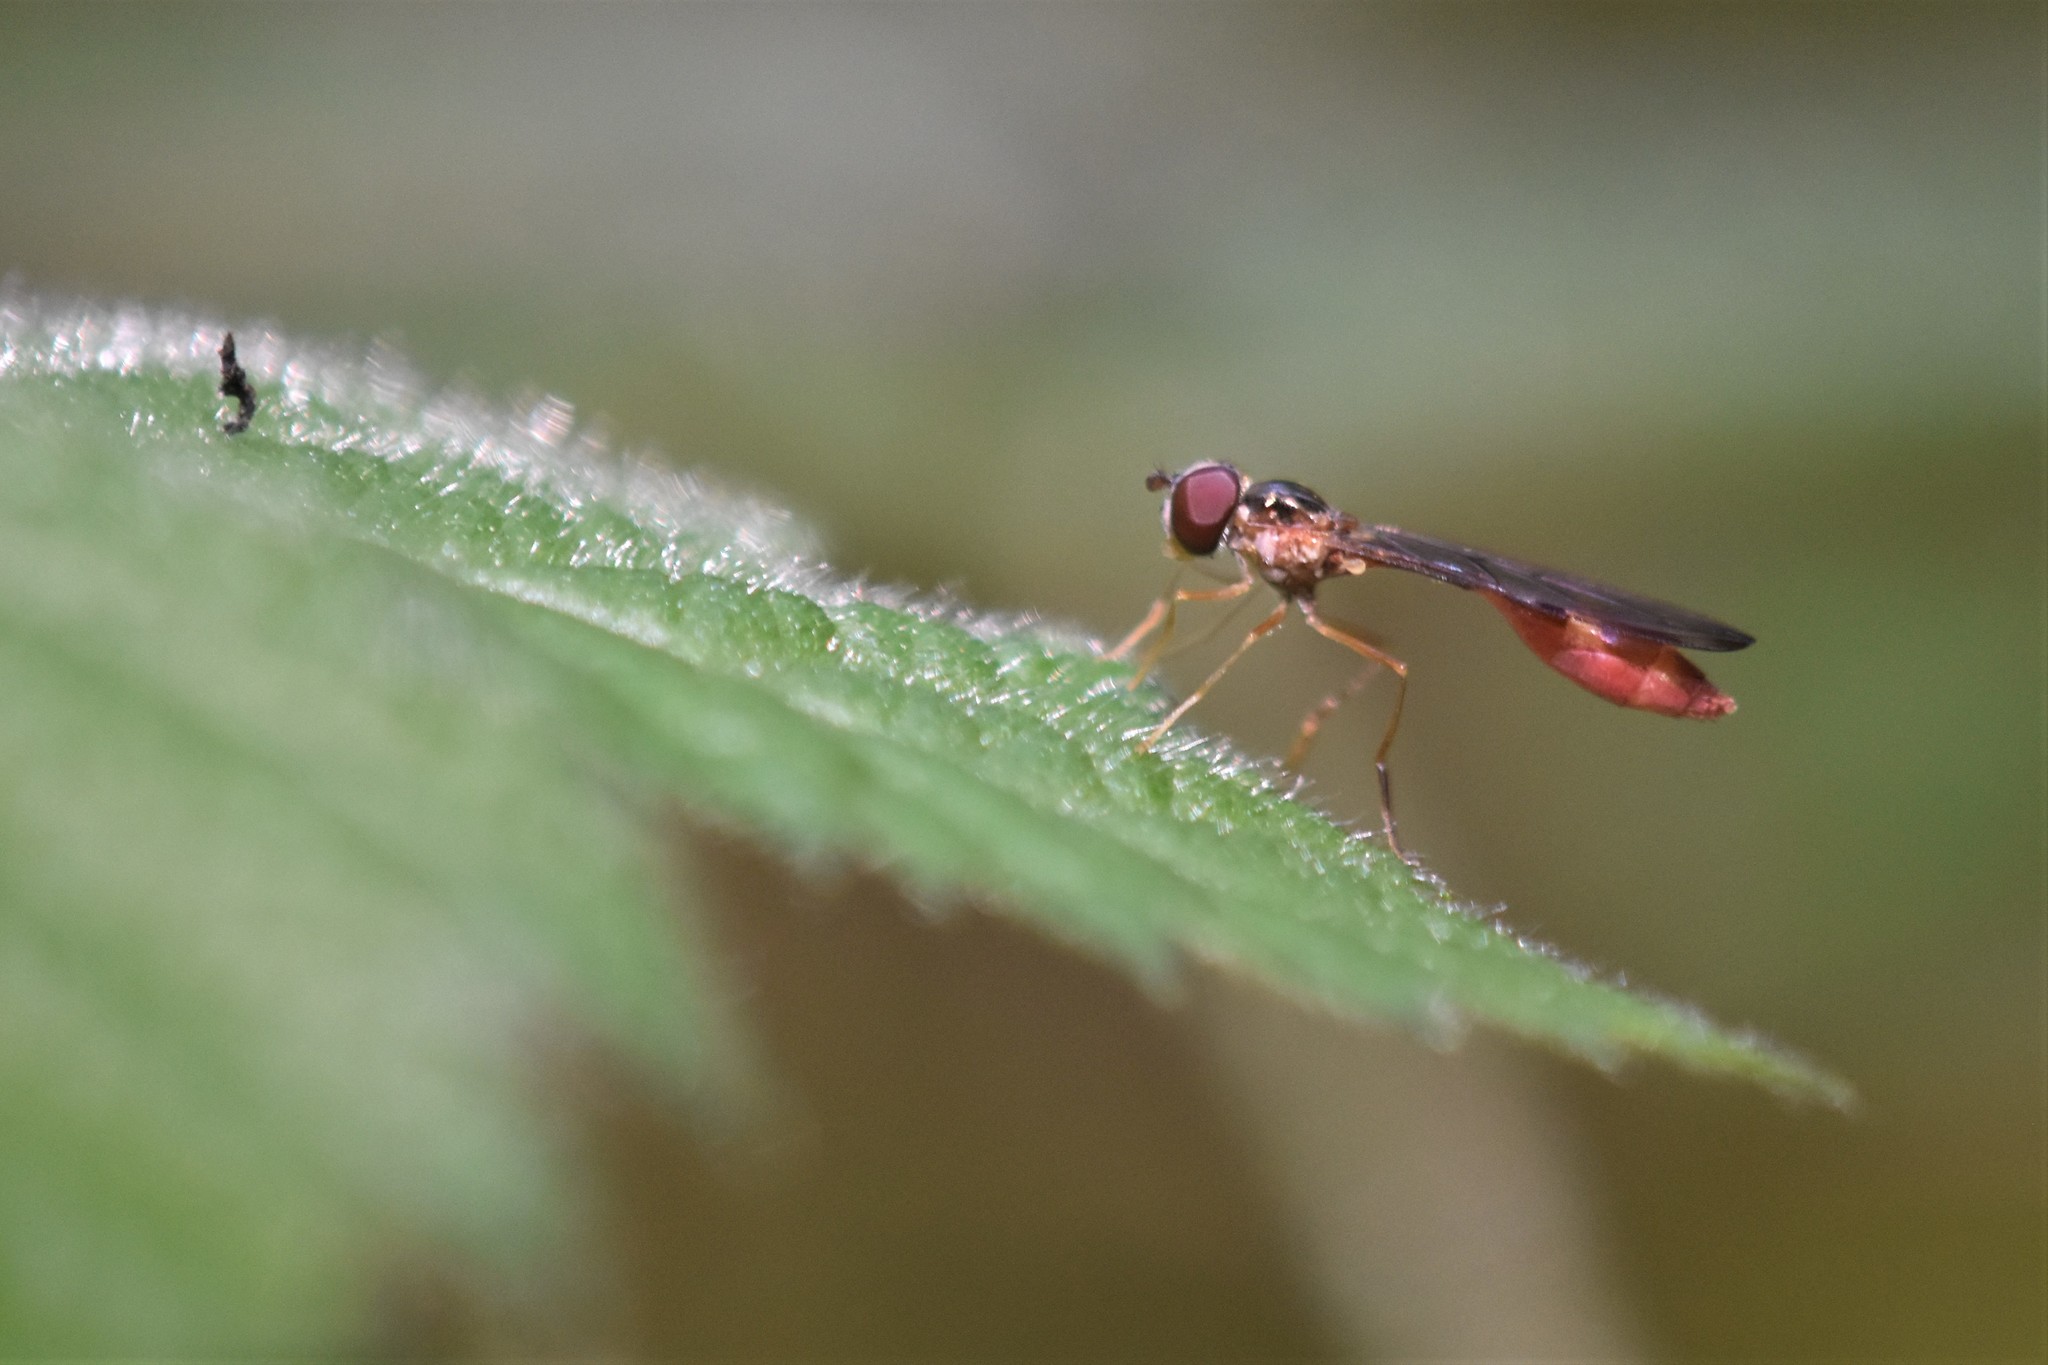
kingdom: Animalia
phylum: Arthropoda
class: Insecta
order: Diptera
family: Syrphidae
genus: Baccha
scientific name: Baccha cognata
